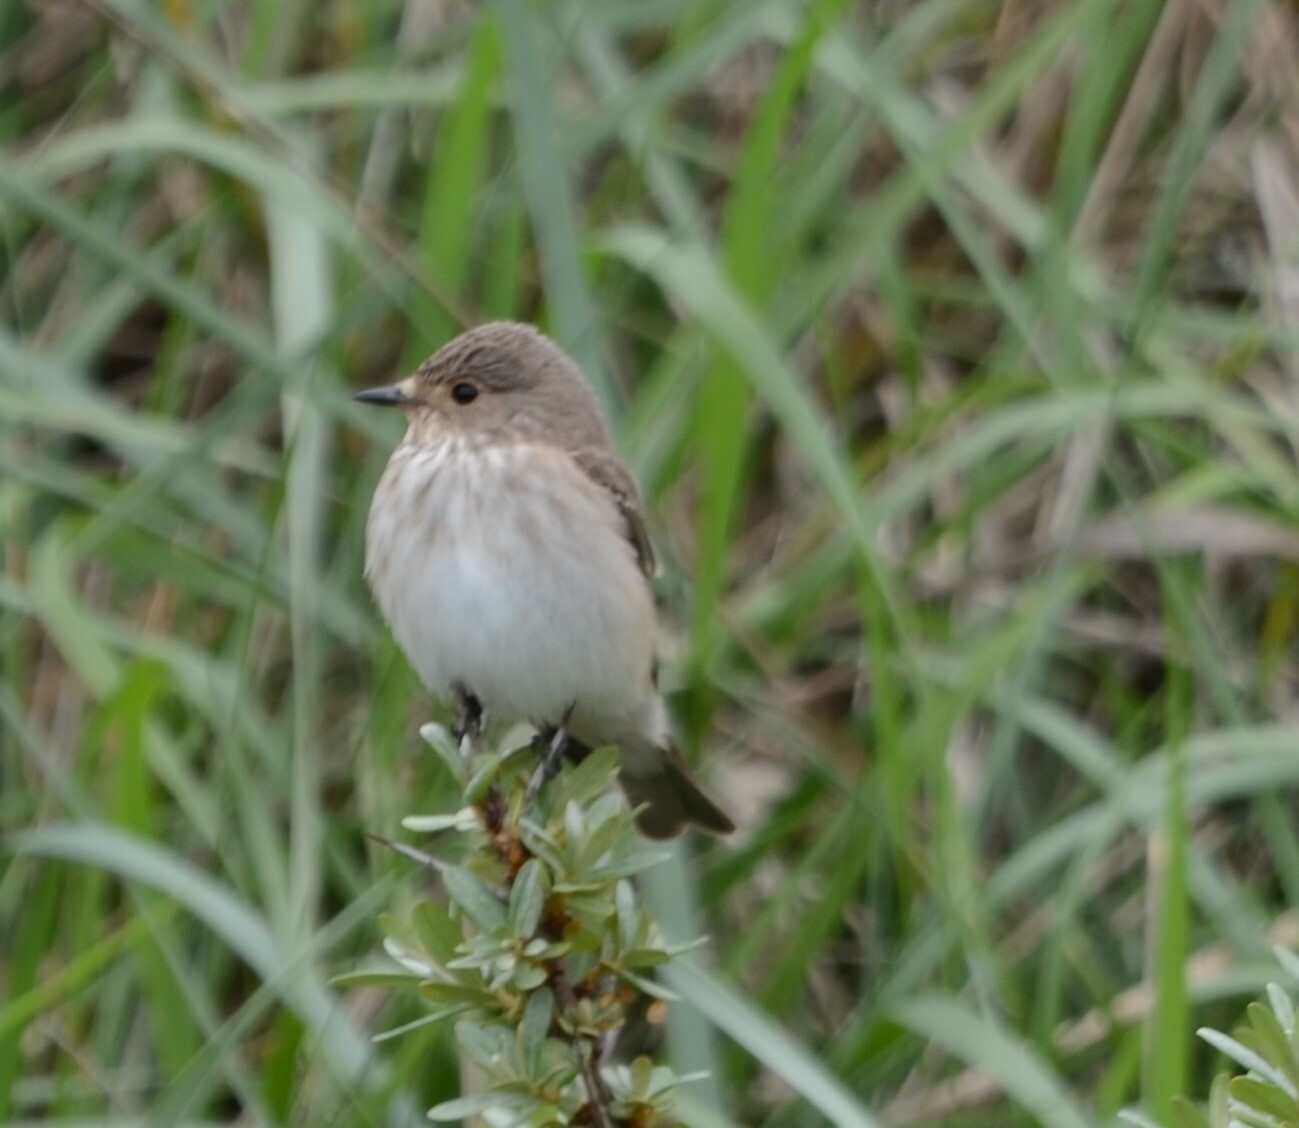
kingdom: Animalia
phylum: Chordata
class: Aves
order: Passeriformes
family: Muscicapidae
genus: Muscicapa
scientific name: Muscicapa striata
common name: Spotted flycatcher
